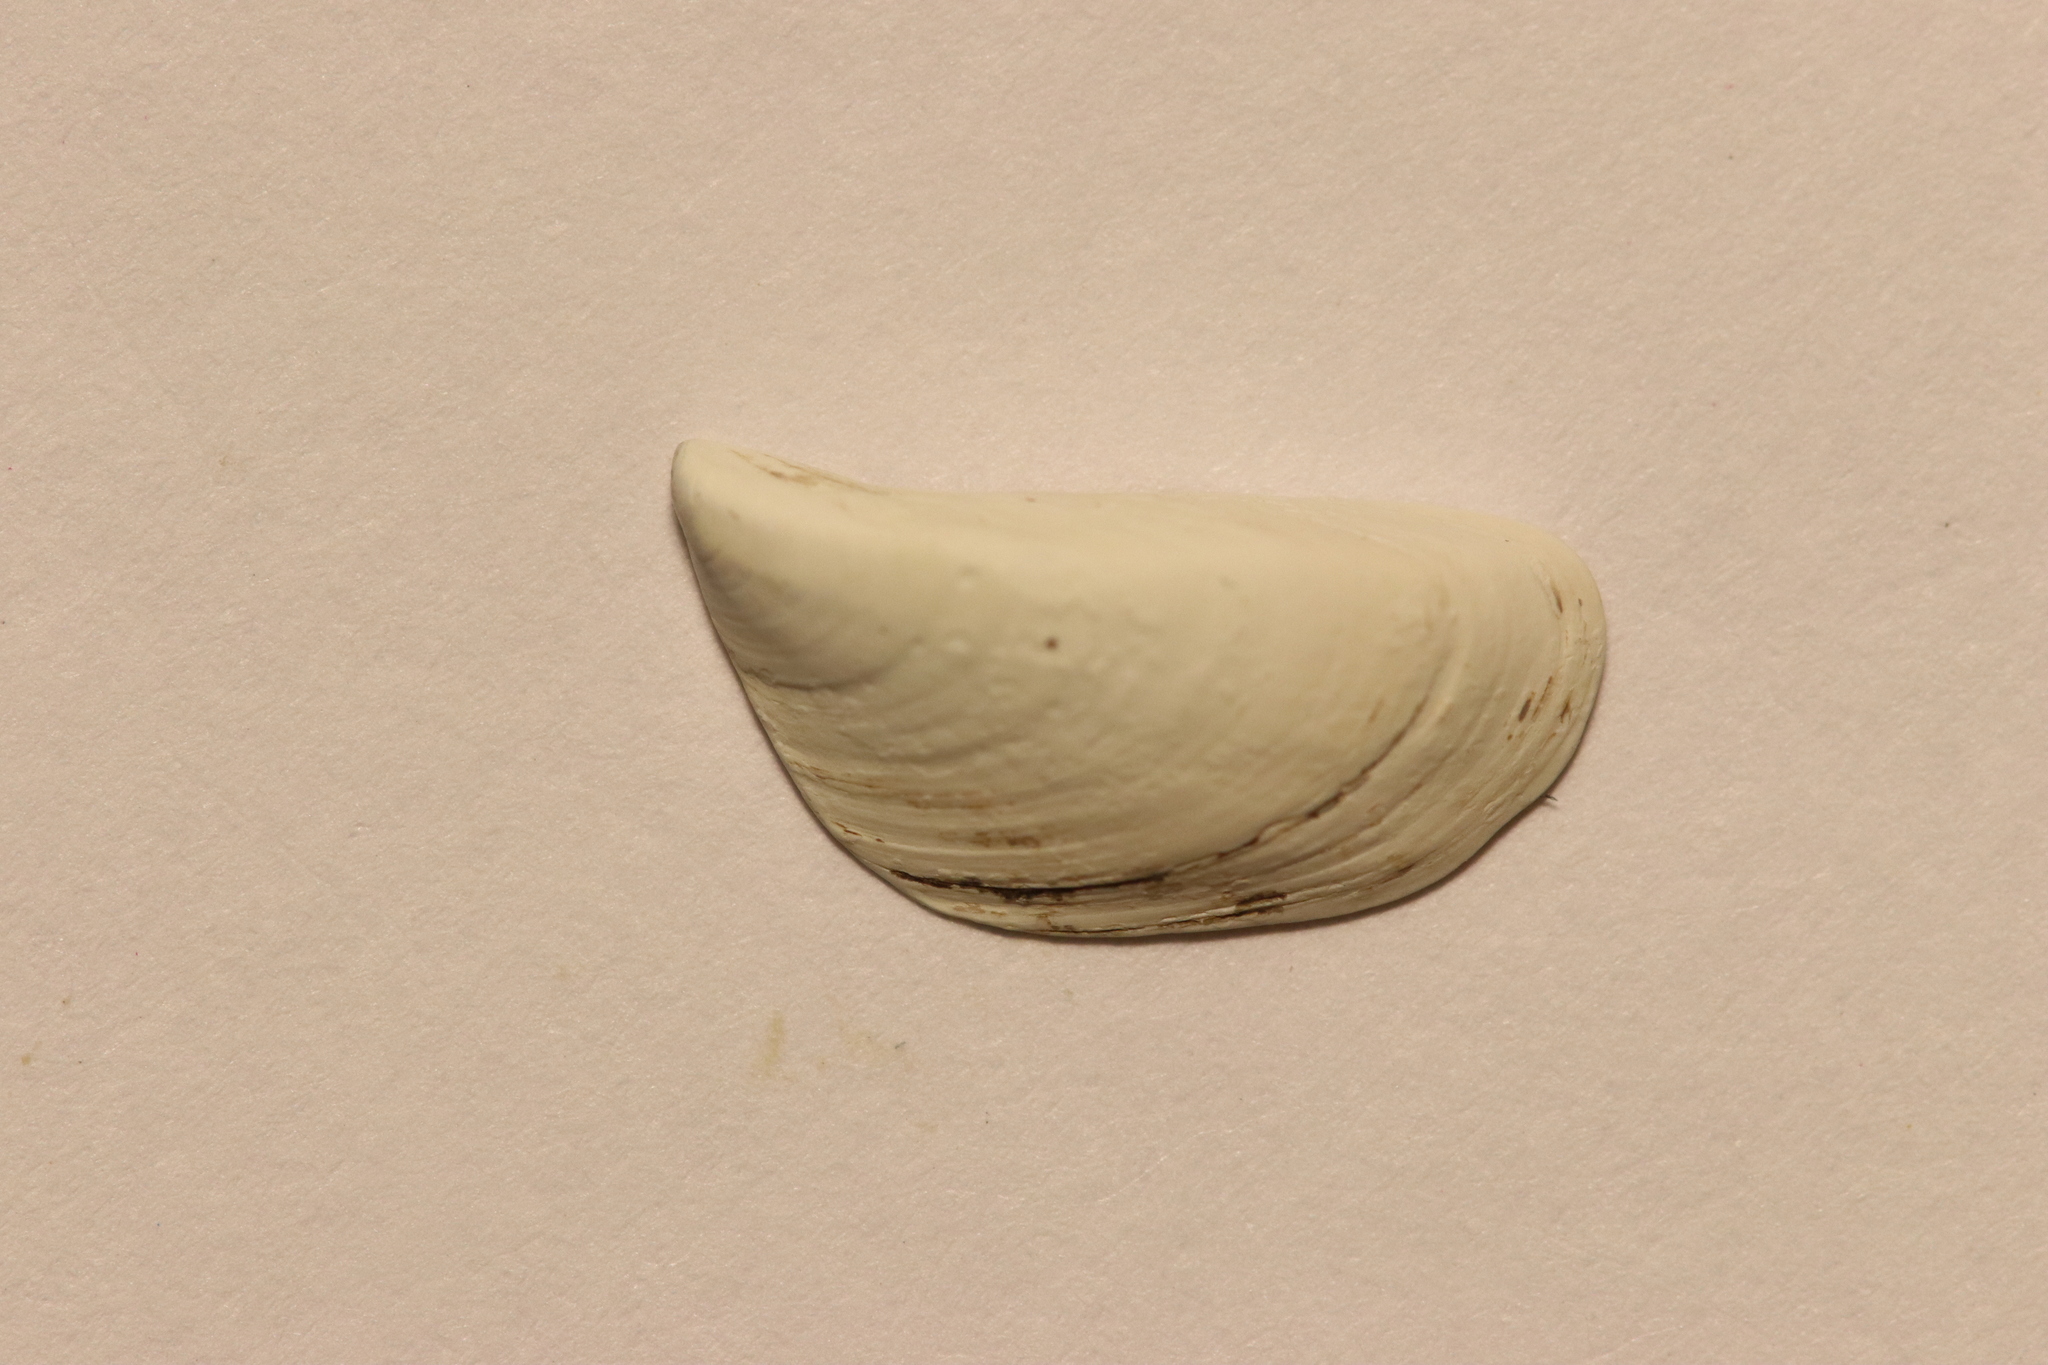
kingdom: Animalia
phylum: Mollusca
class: Bivalvia
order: Myida
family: Dreissenidae
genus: Dreissena
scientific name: Dreissena polymorpha
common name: Zebra mussel
